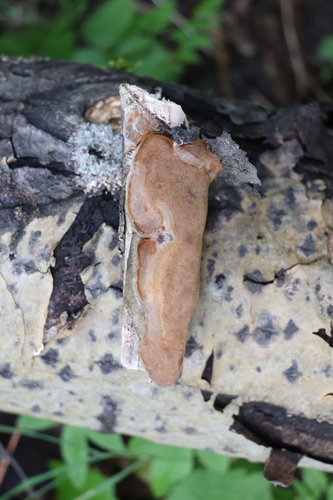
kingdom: Fungi
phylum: Basidiomycota
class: Agaricomycetes
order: Hymenochaetales
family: Hymenochaetaceae
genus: Phellinus
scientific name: Phellinus tremulae
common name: Aspen bracket
